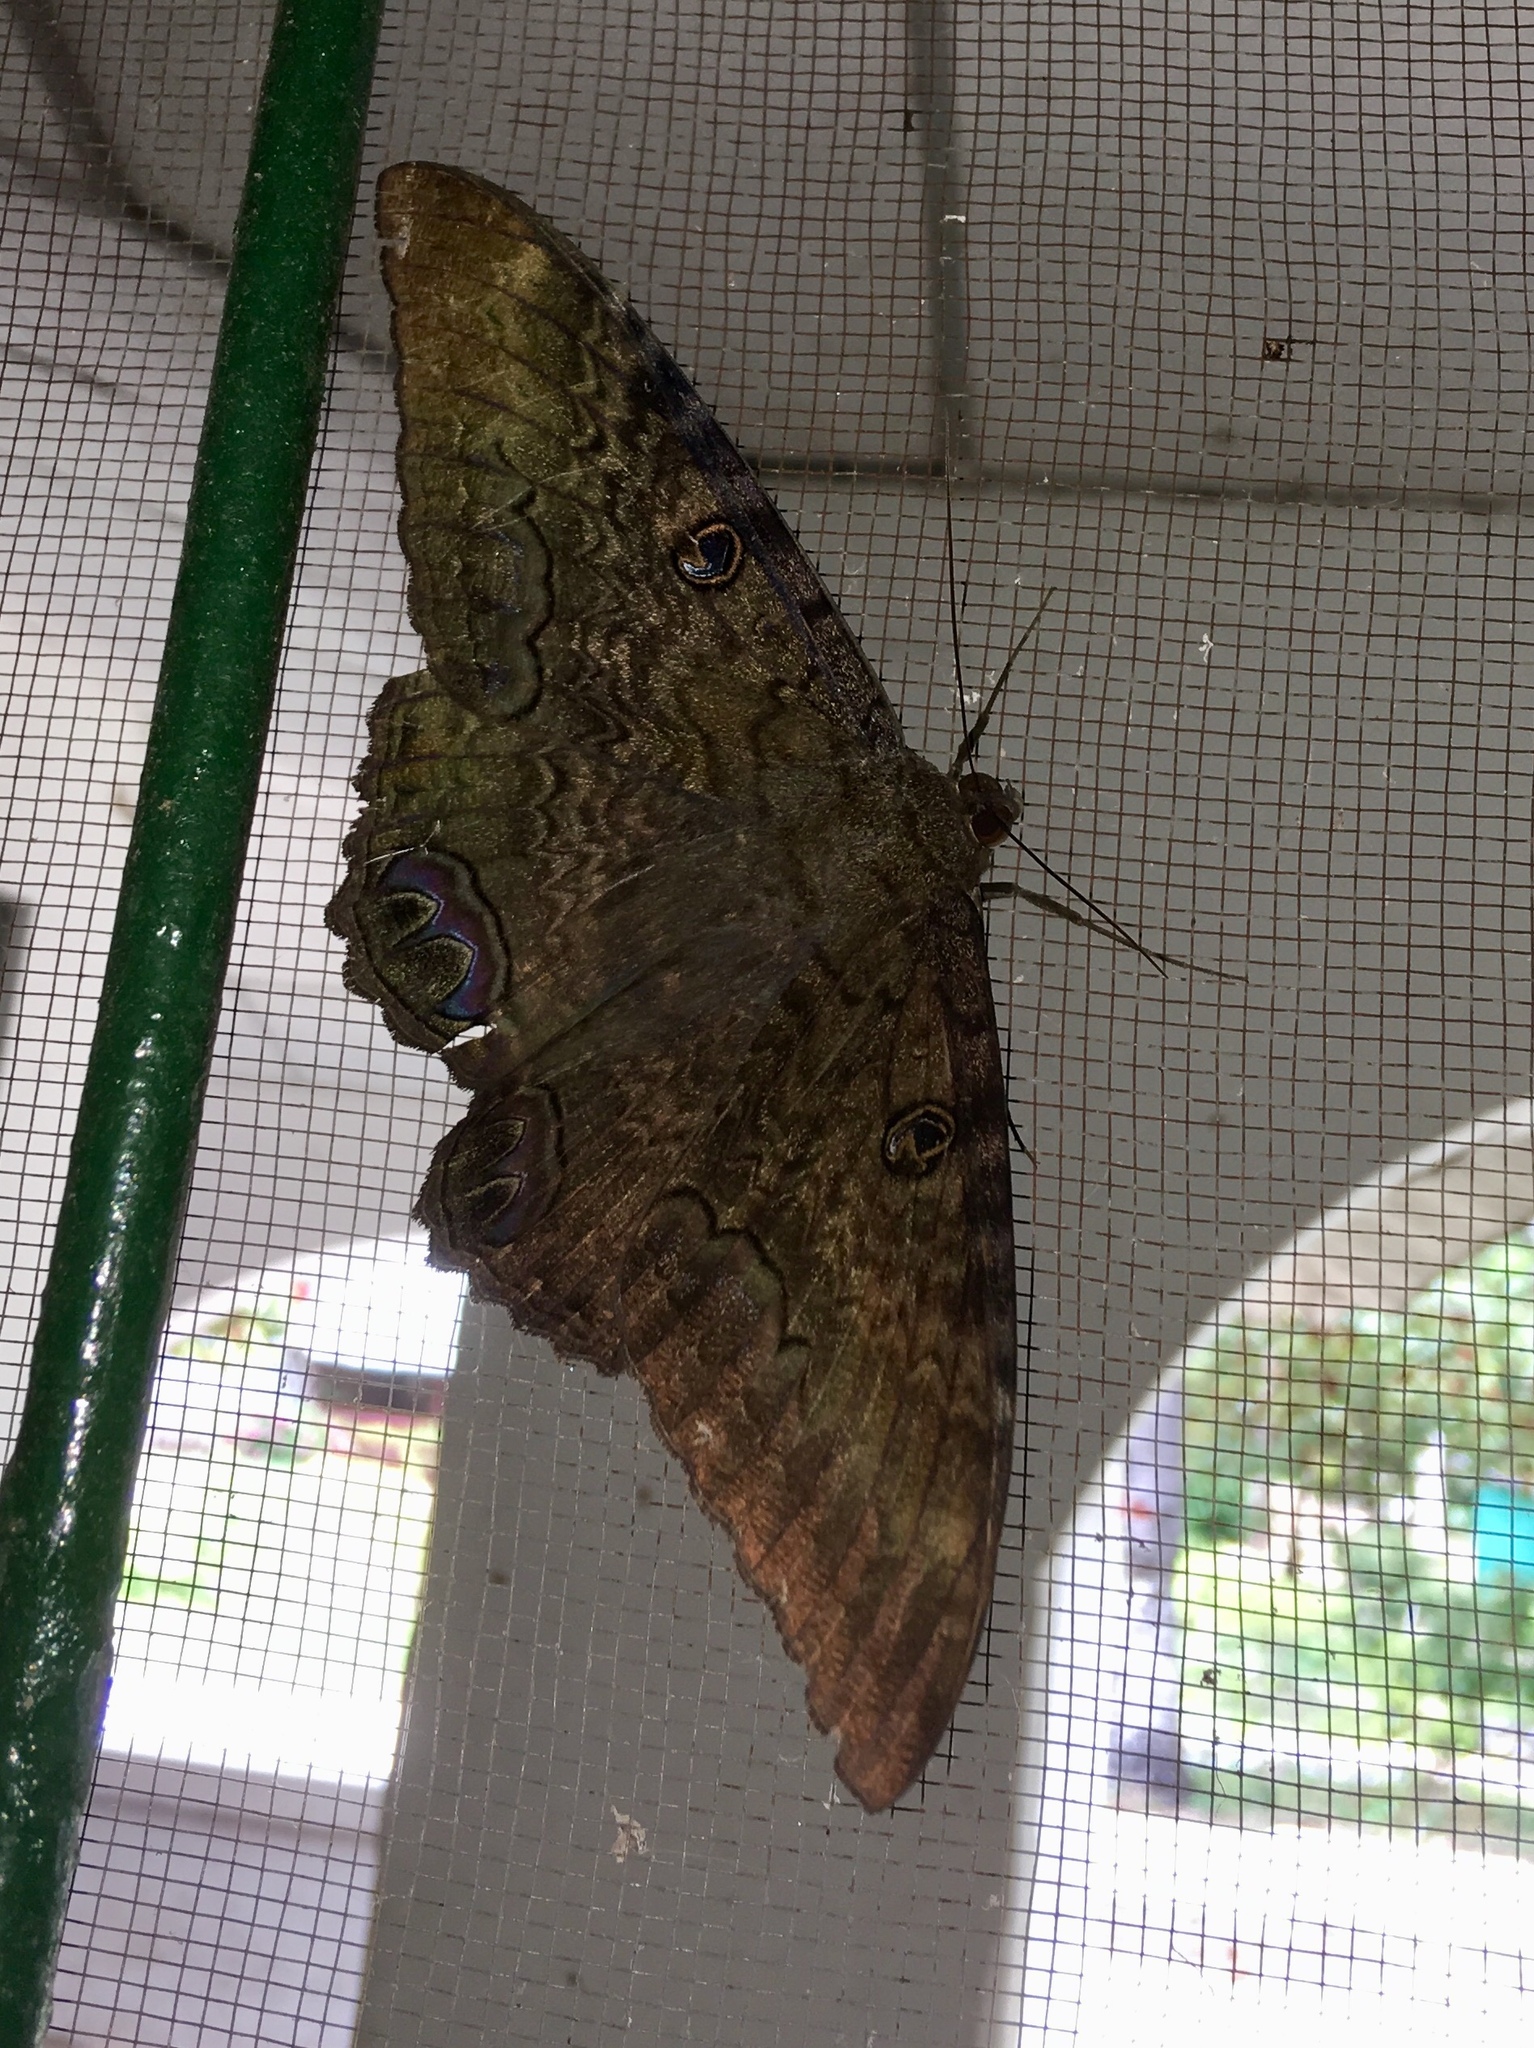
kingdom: Animalia
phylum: Arthropoda
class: Insecta
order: Lepidoptera
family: Erebidae
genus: Ascalapha
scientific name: Ascalapha odorata
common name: Black witch
